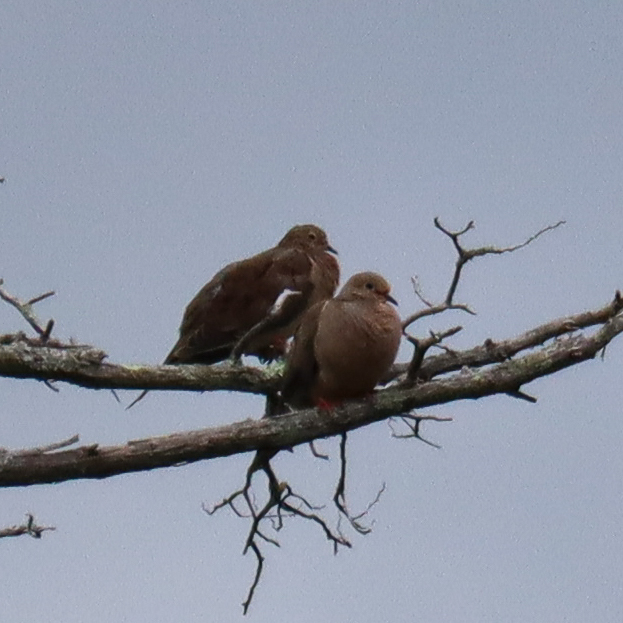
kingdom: Animalia
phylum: Chordata
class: Aves
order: Columbiformes
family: Columbidae
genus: Zenaida
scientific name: Zenaida macroura
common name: Mourning dove
